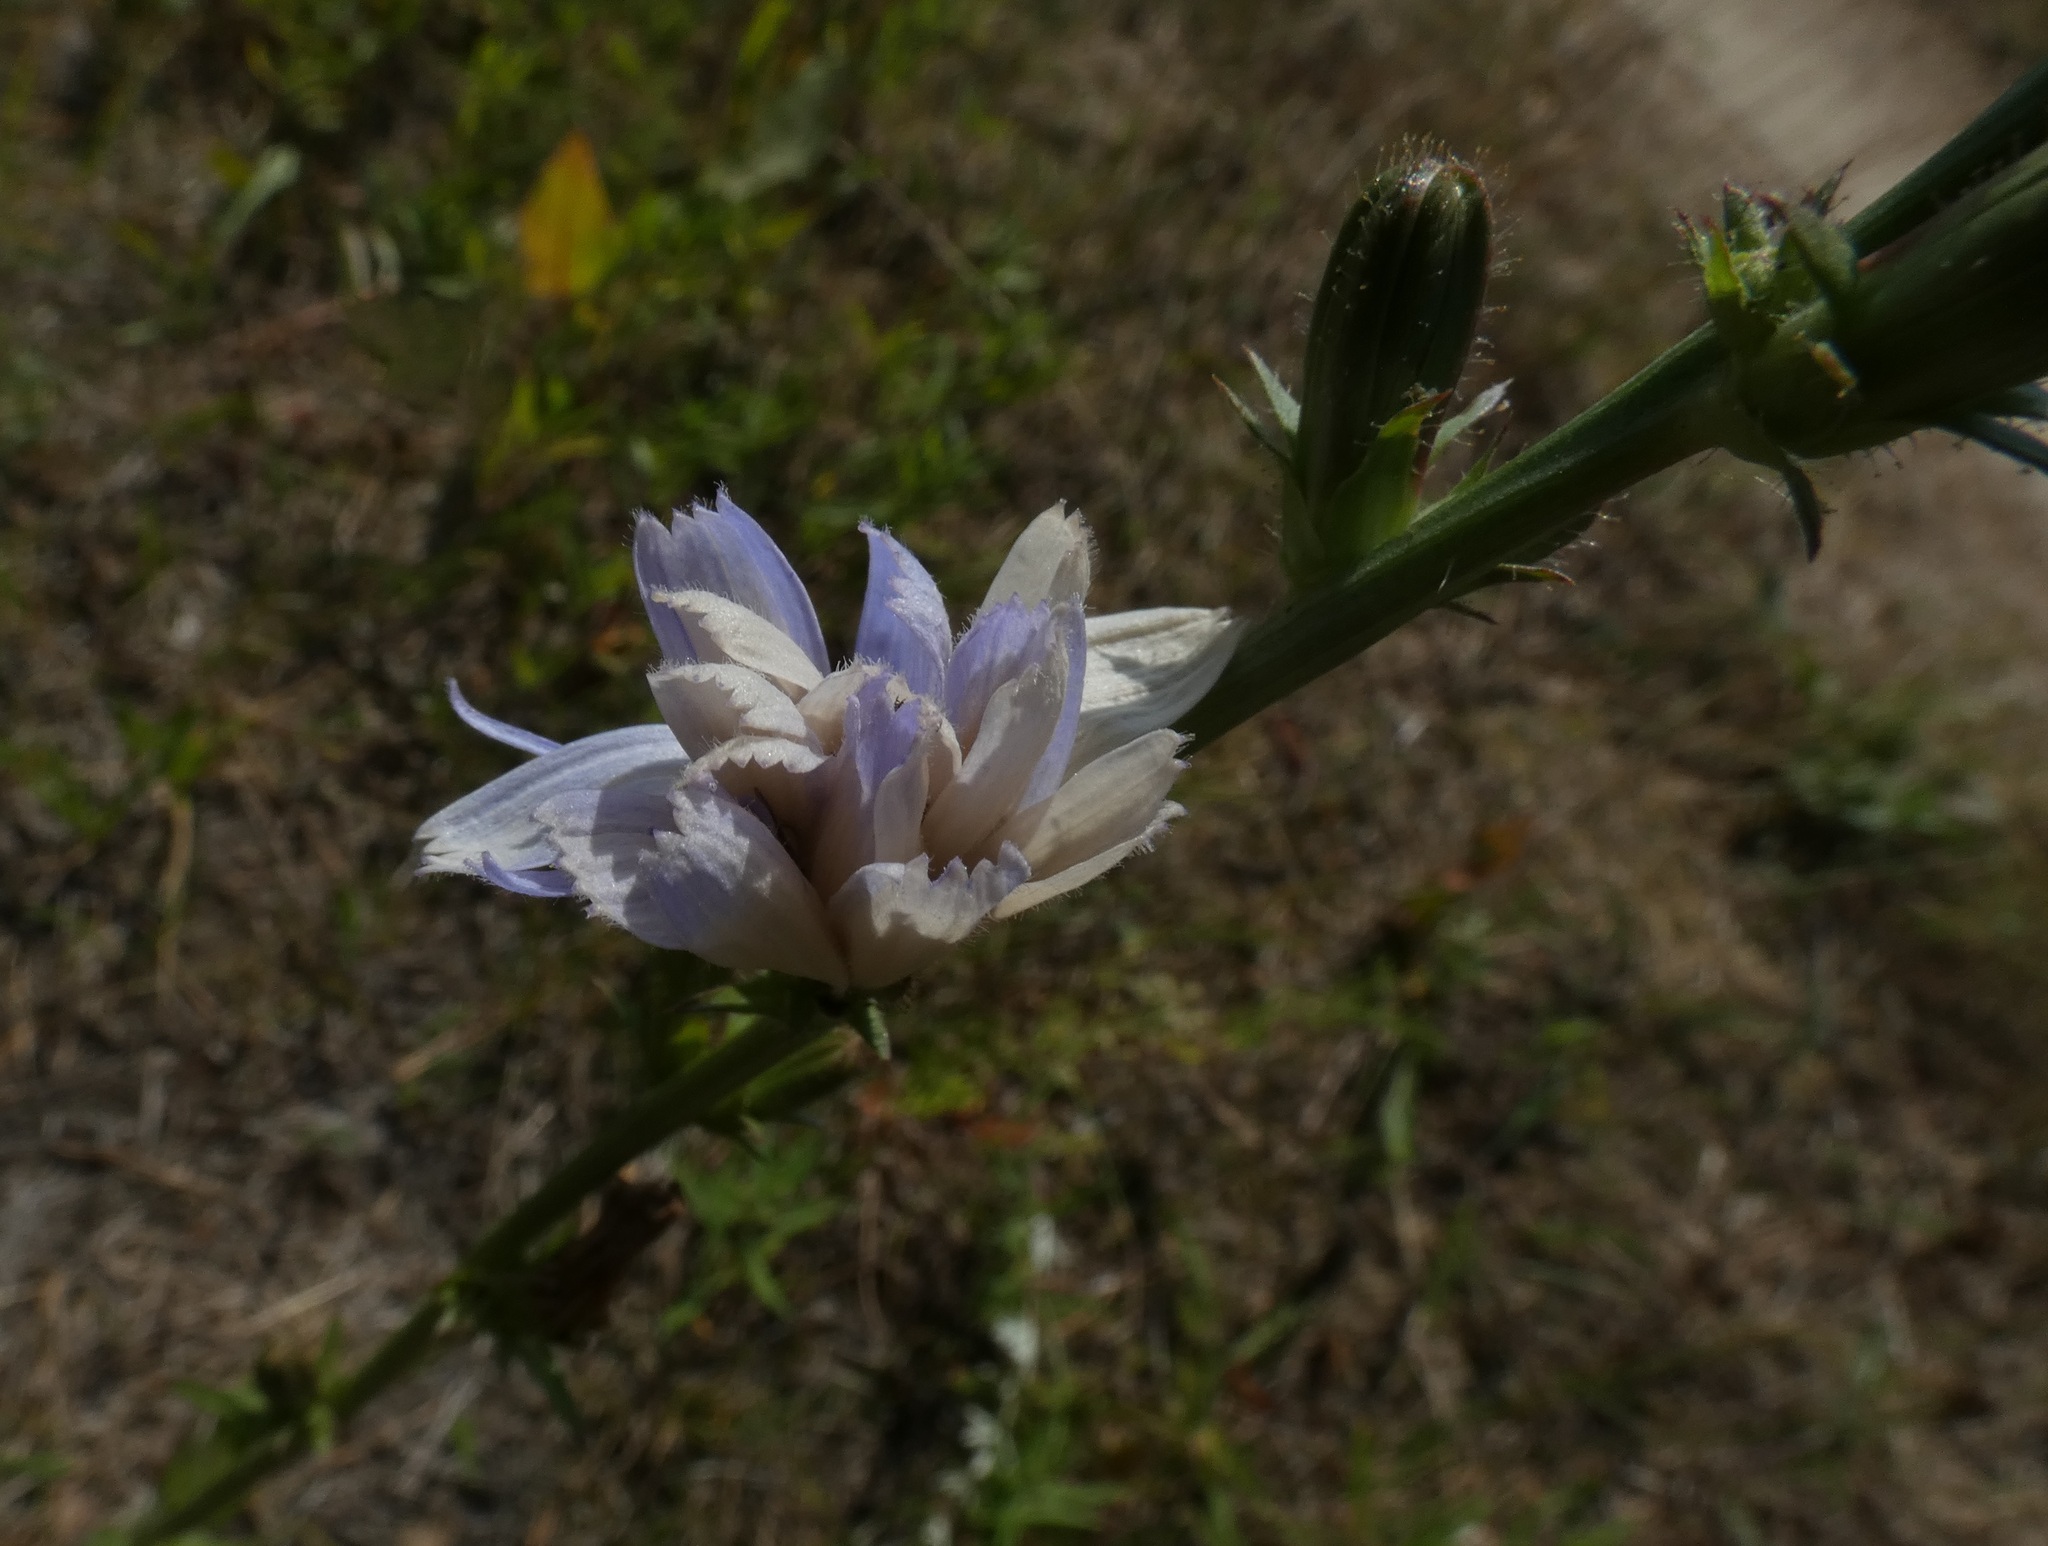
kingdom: Plantae
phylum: Tracheophyta
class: Magnoliopsida
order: Asterales
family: Asteraceae
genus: Cichorium
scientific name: Cichorium intybus
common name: Chicory
